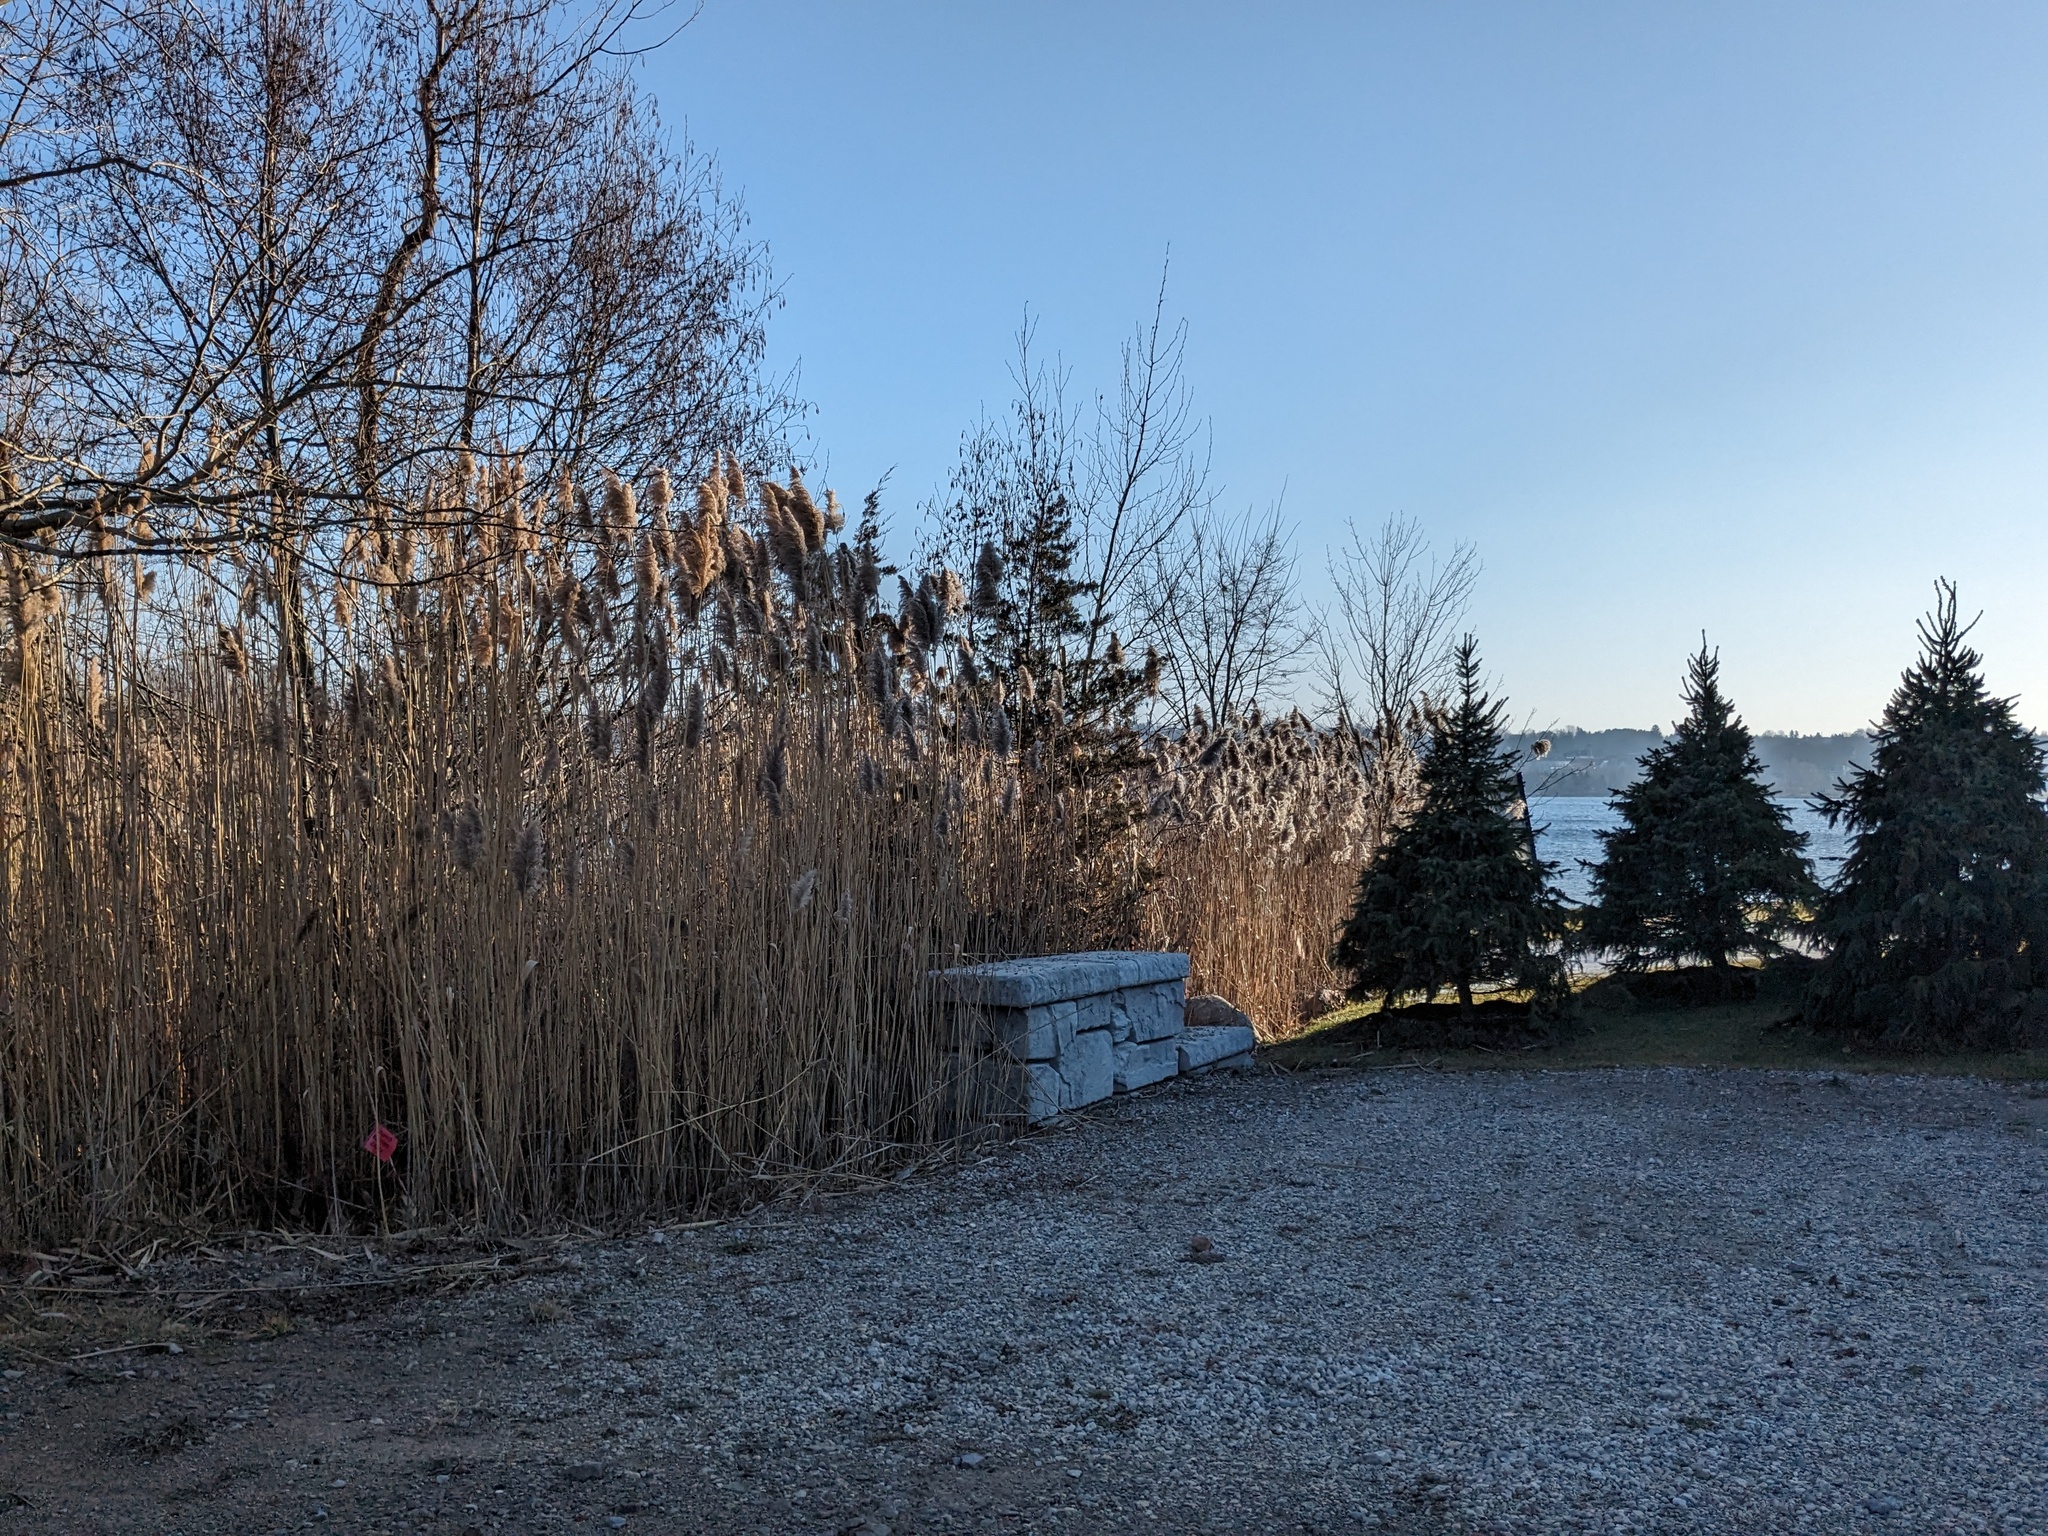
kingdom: Plantae
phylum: Tracheophyta
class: Liliopsida
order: Poales
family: Poaceae
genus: Phragmites
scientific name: Phragmites australis
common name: Common reed
